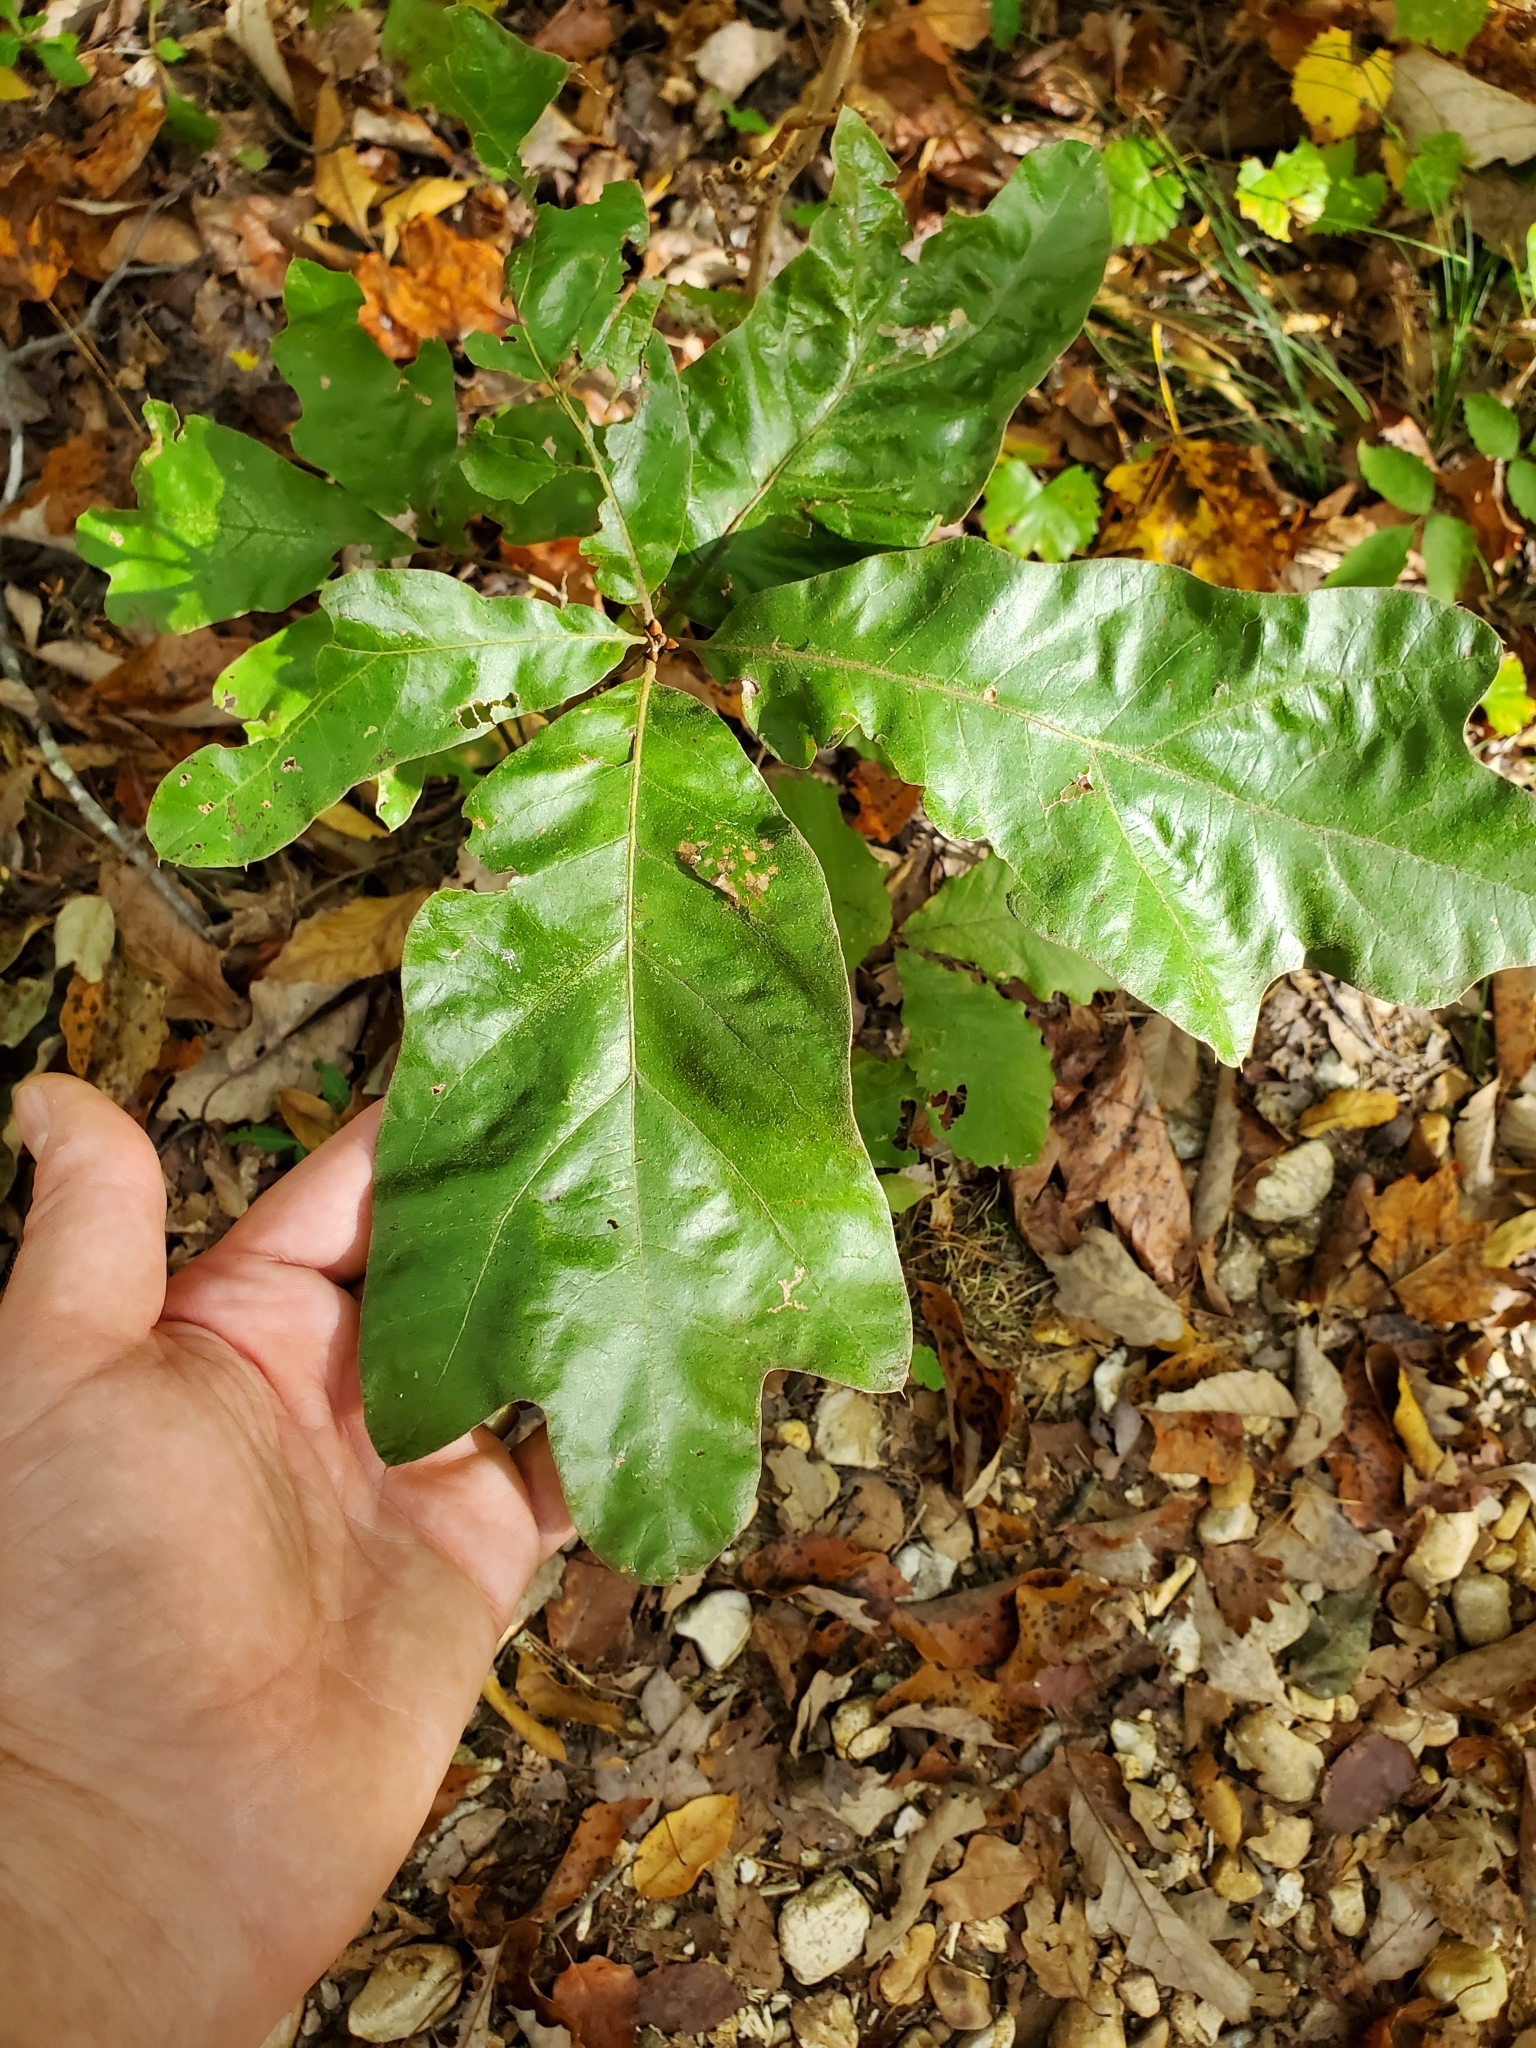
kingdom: Plantae
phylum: Tracheophyta
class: Magnoliopsida
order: Fagales
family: Fagaceae
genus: Quercus
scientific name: Quercus marilandica
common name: Blackjack oak
